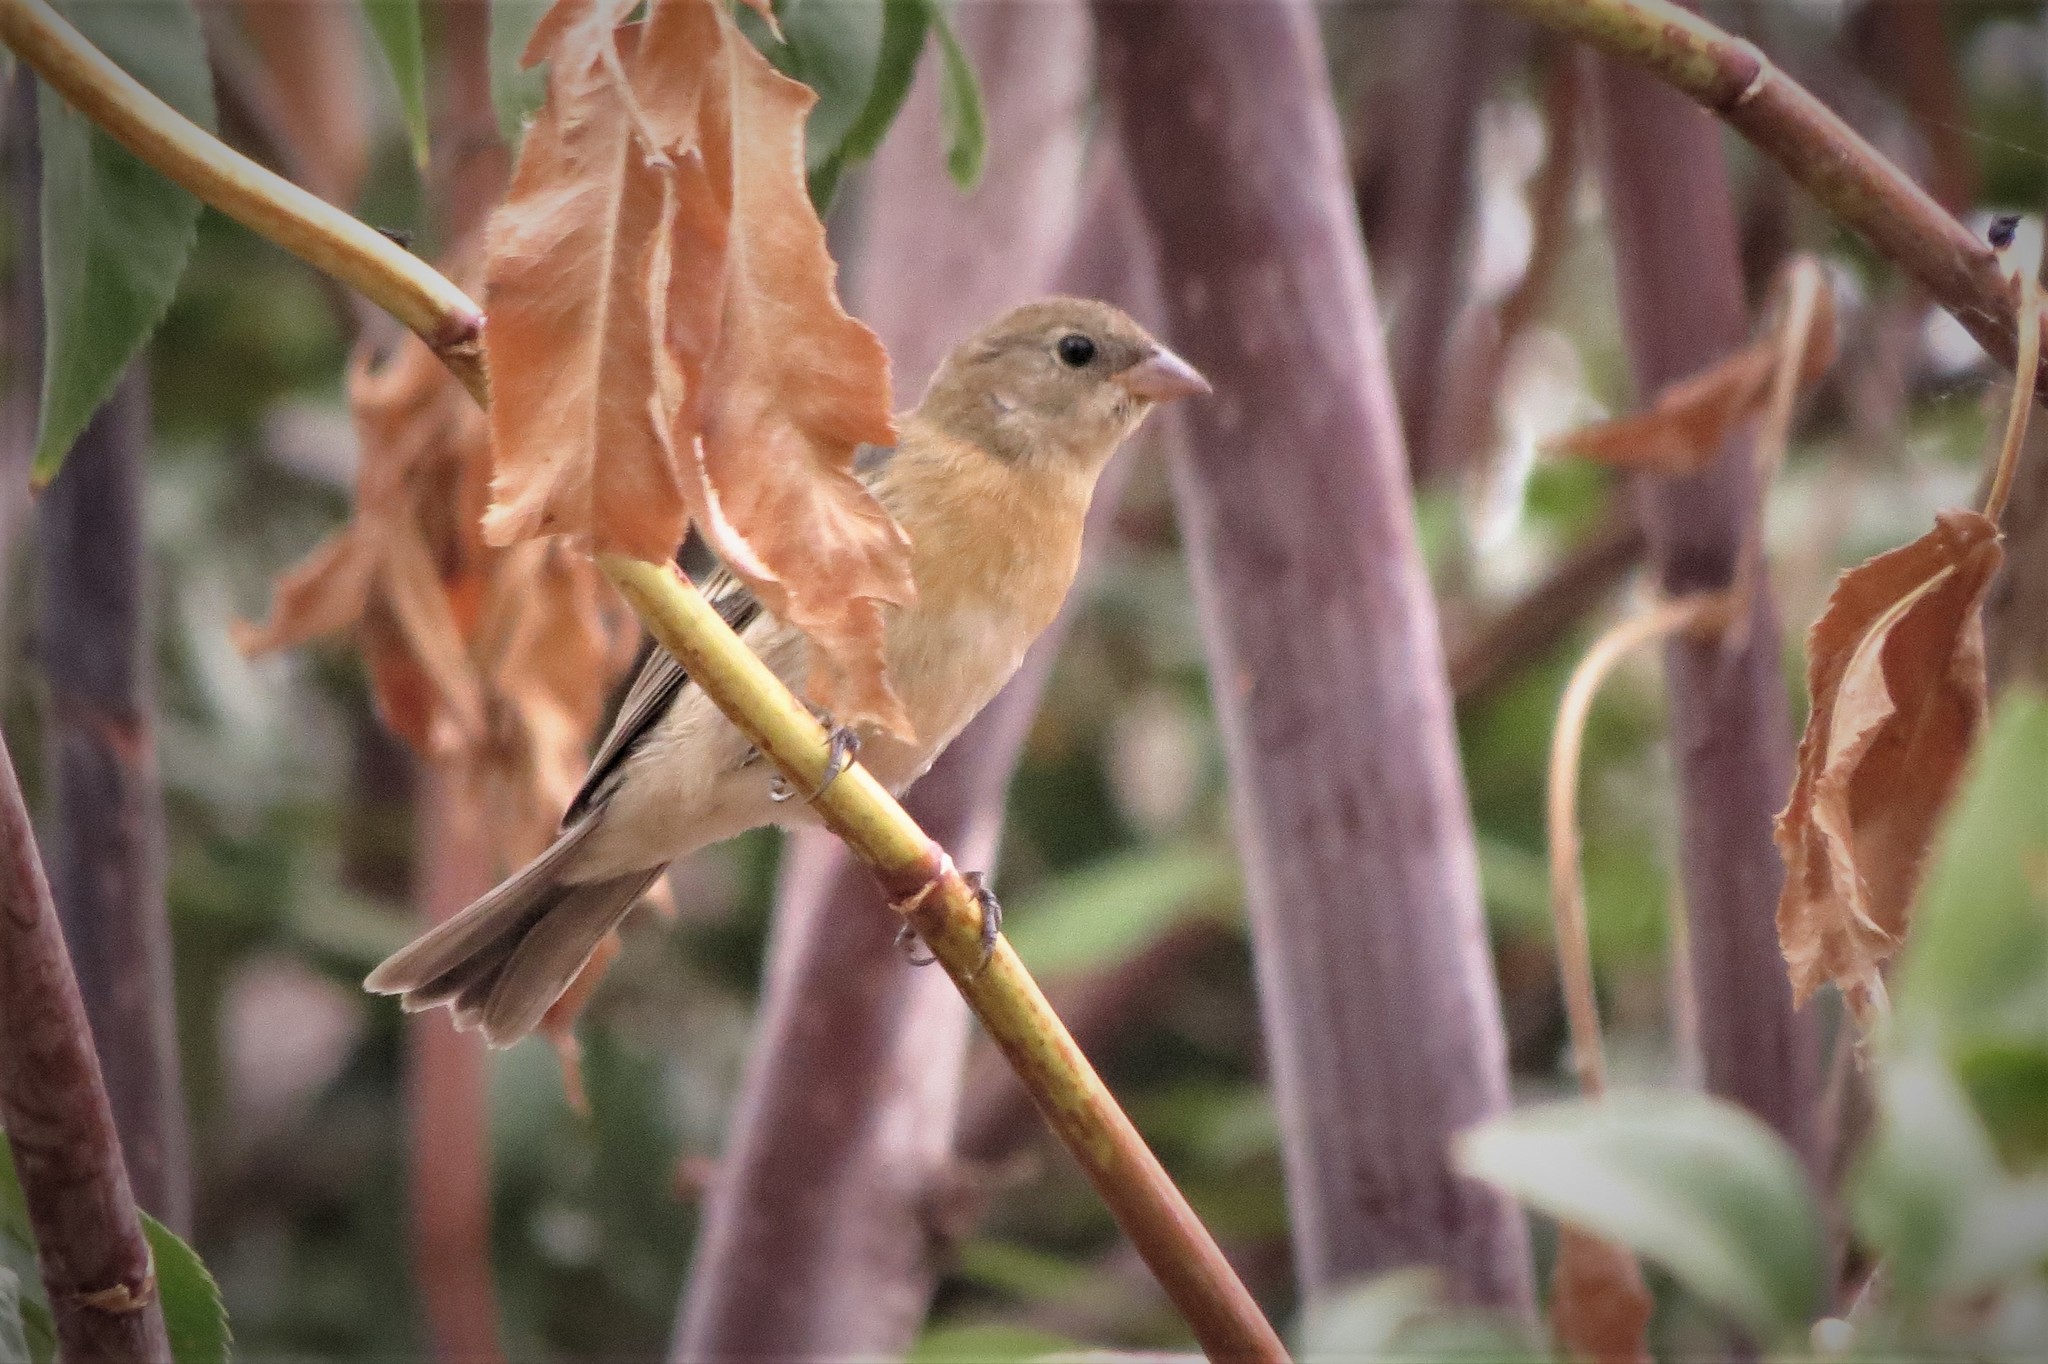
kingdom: Animalia
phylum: Chordata
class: Aves
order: Passeriformes
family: Cardinalidae
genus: Passerina
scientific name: Passerina amoena
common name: Lazuli bunting
